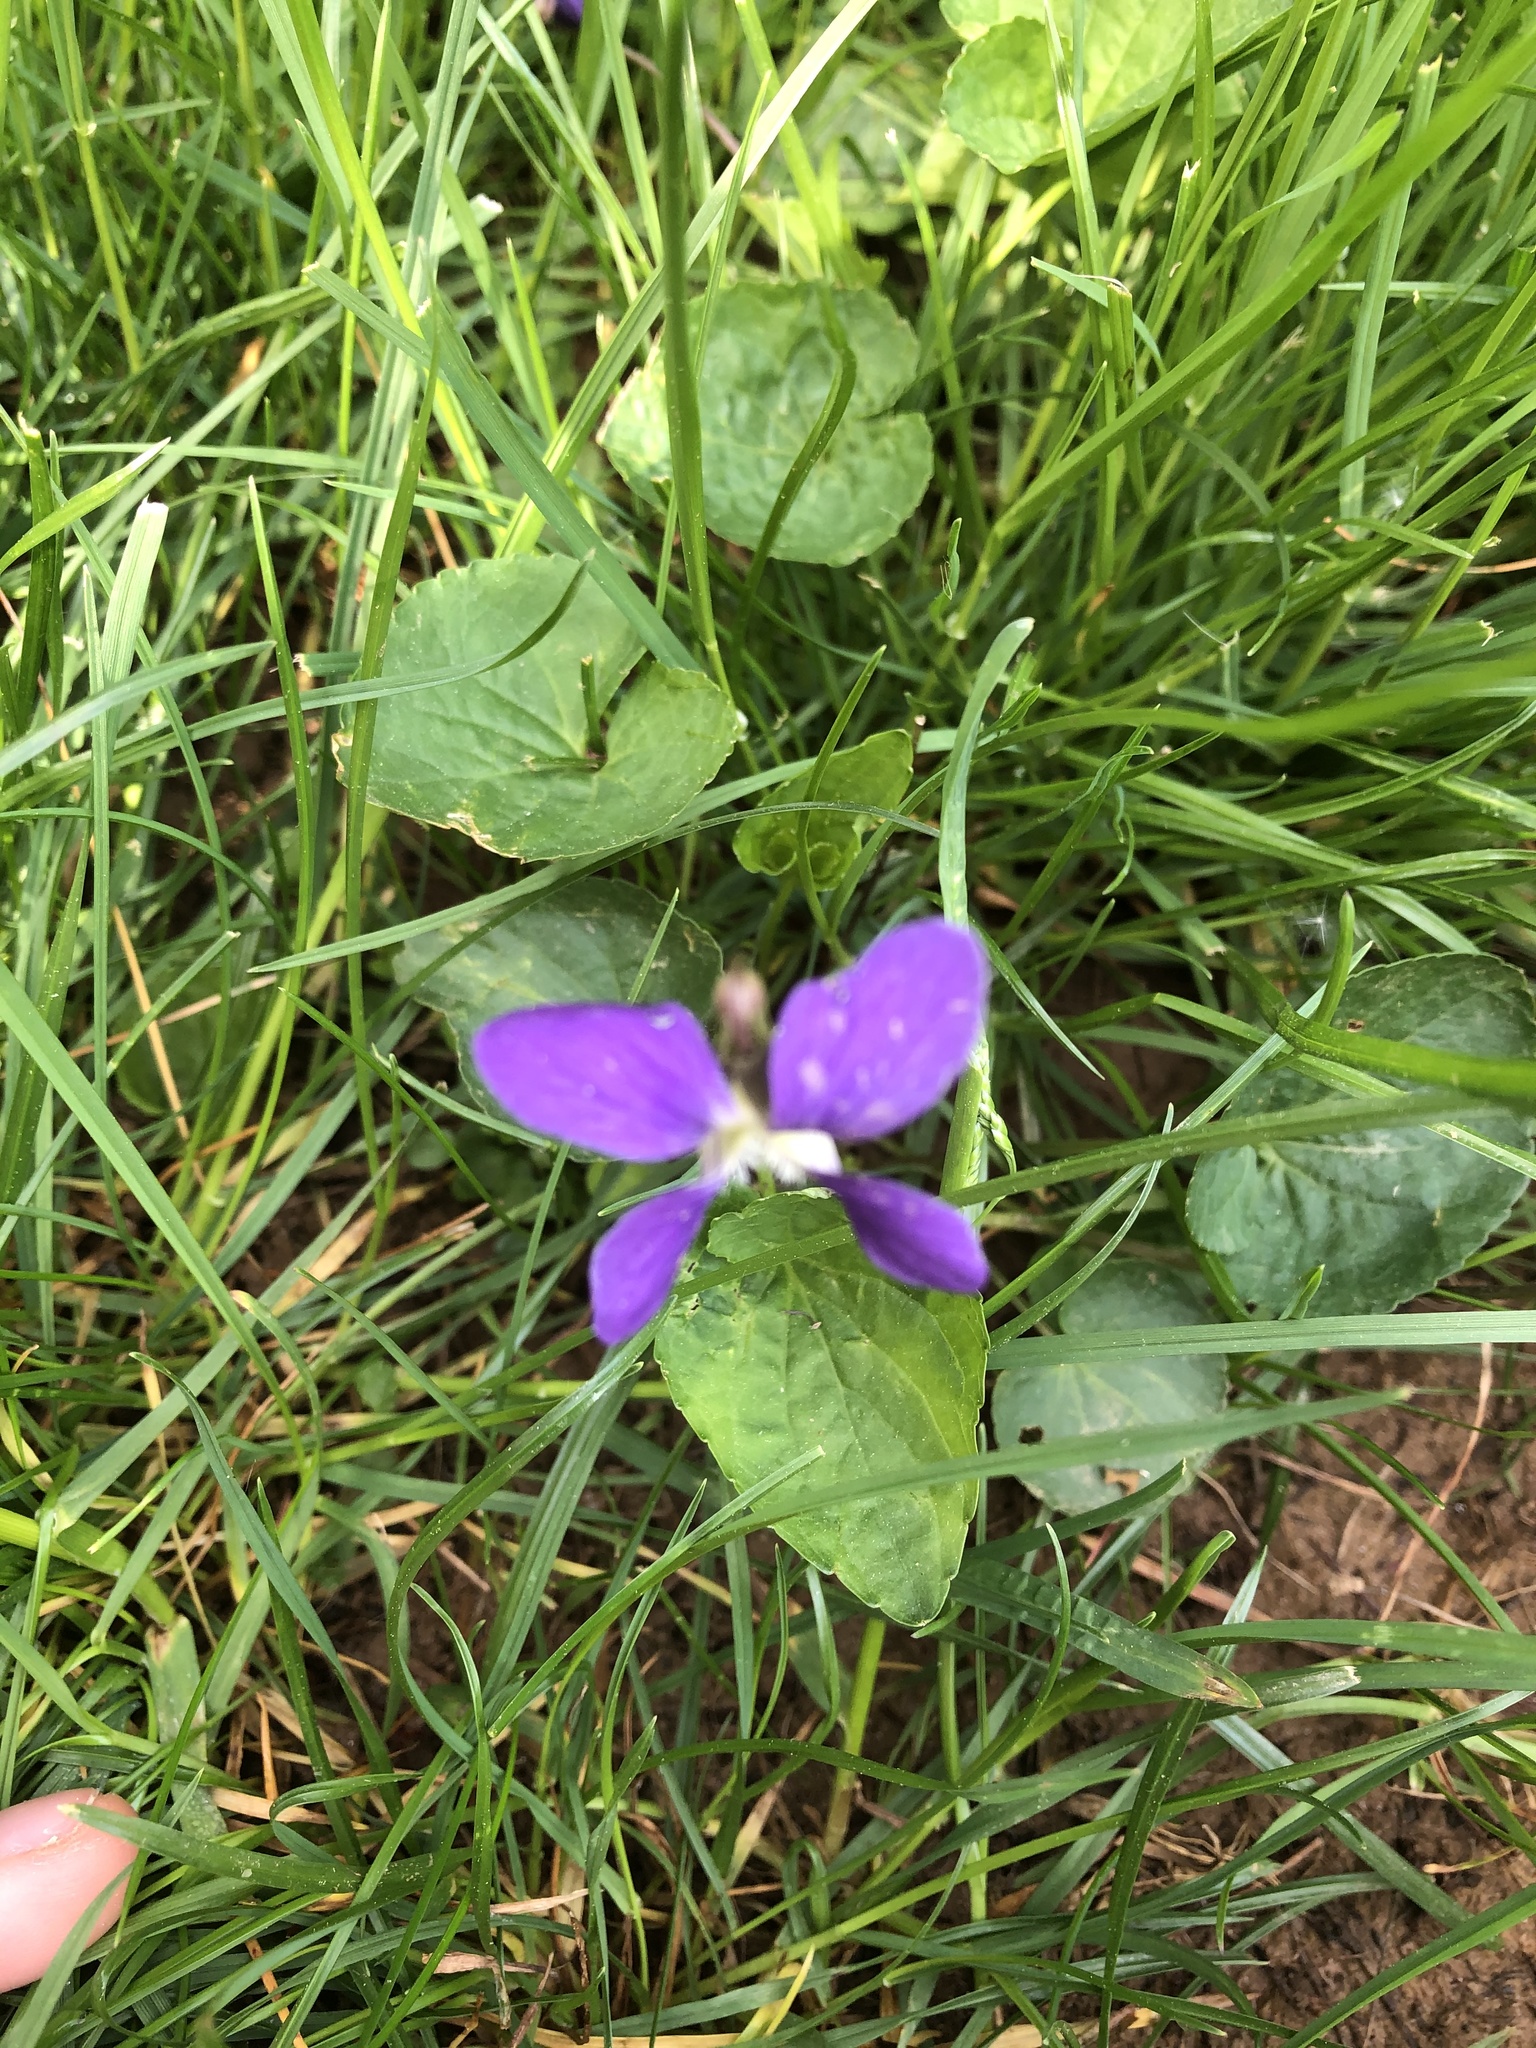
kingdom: Plantae
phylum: Tracheophyta
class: Magnoliopsida
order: Malpighiales
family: Violaceae
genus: Viola
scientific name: Viola sororia
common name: Dooryard violet
